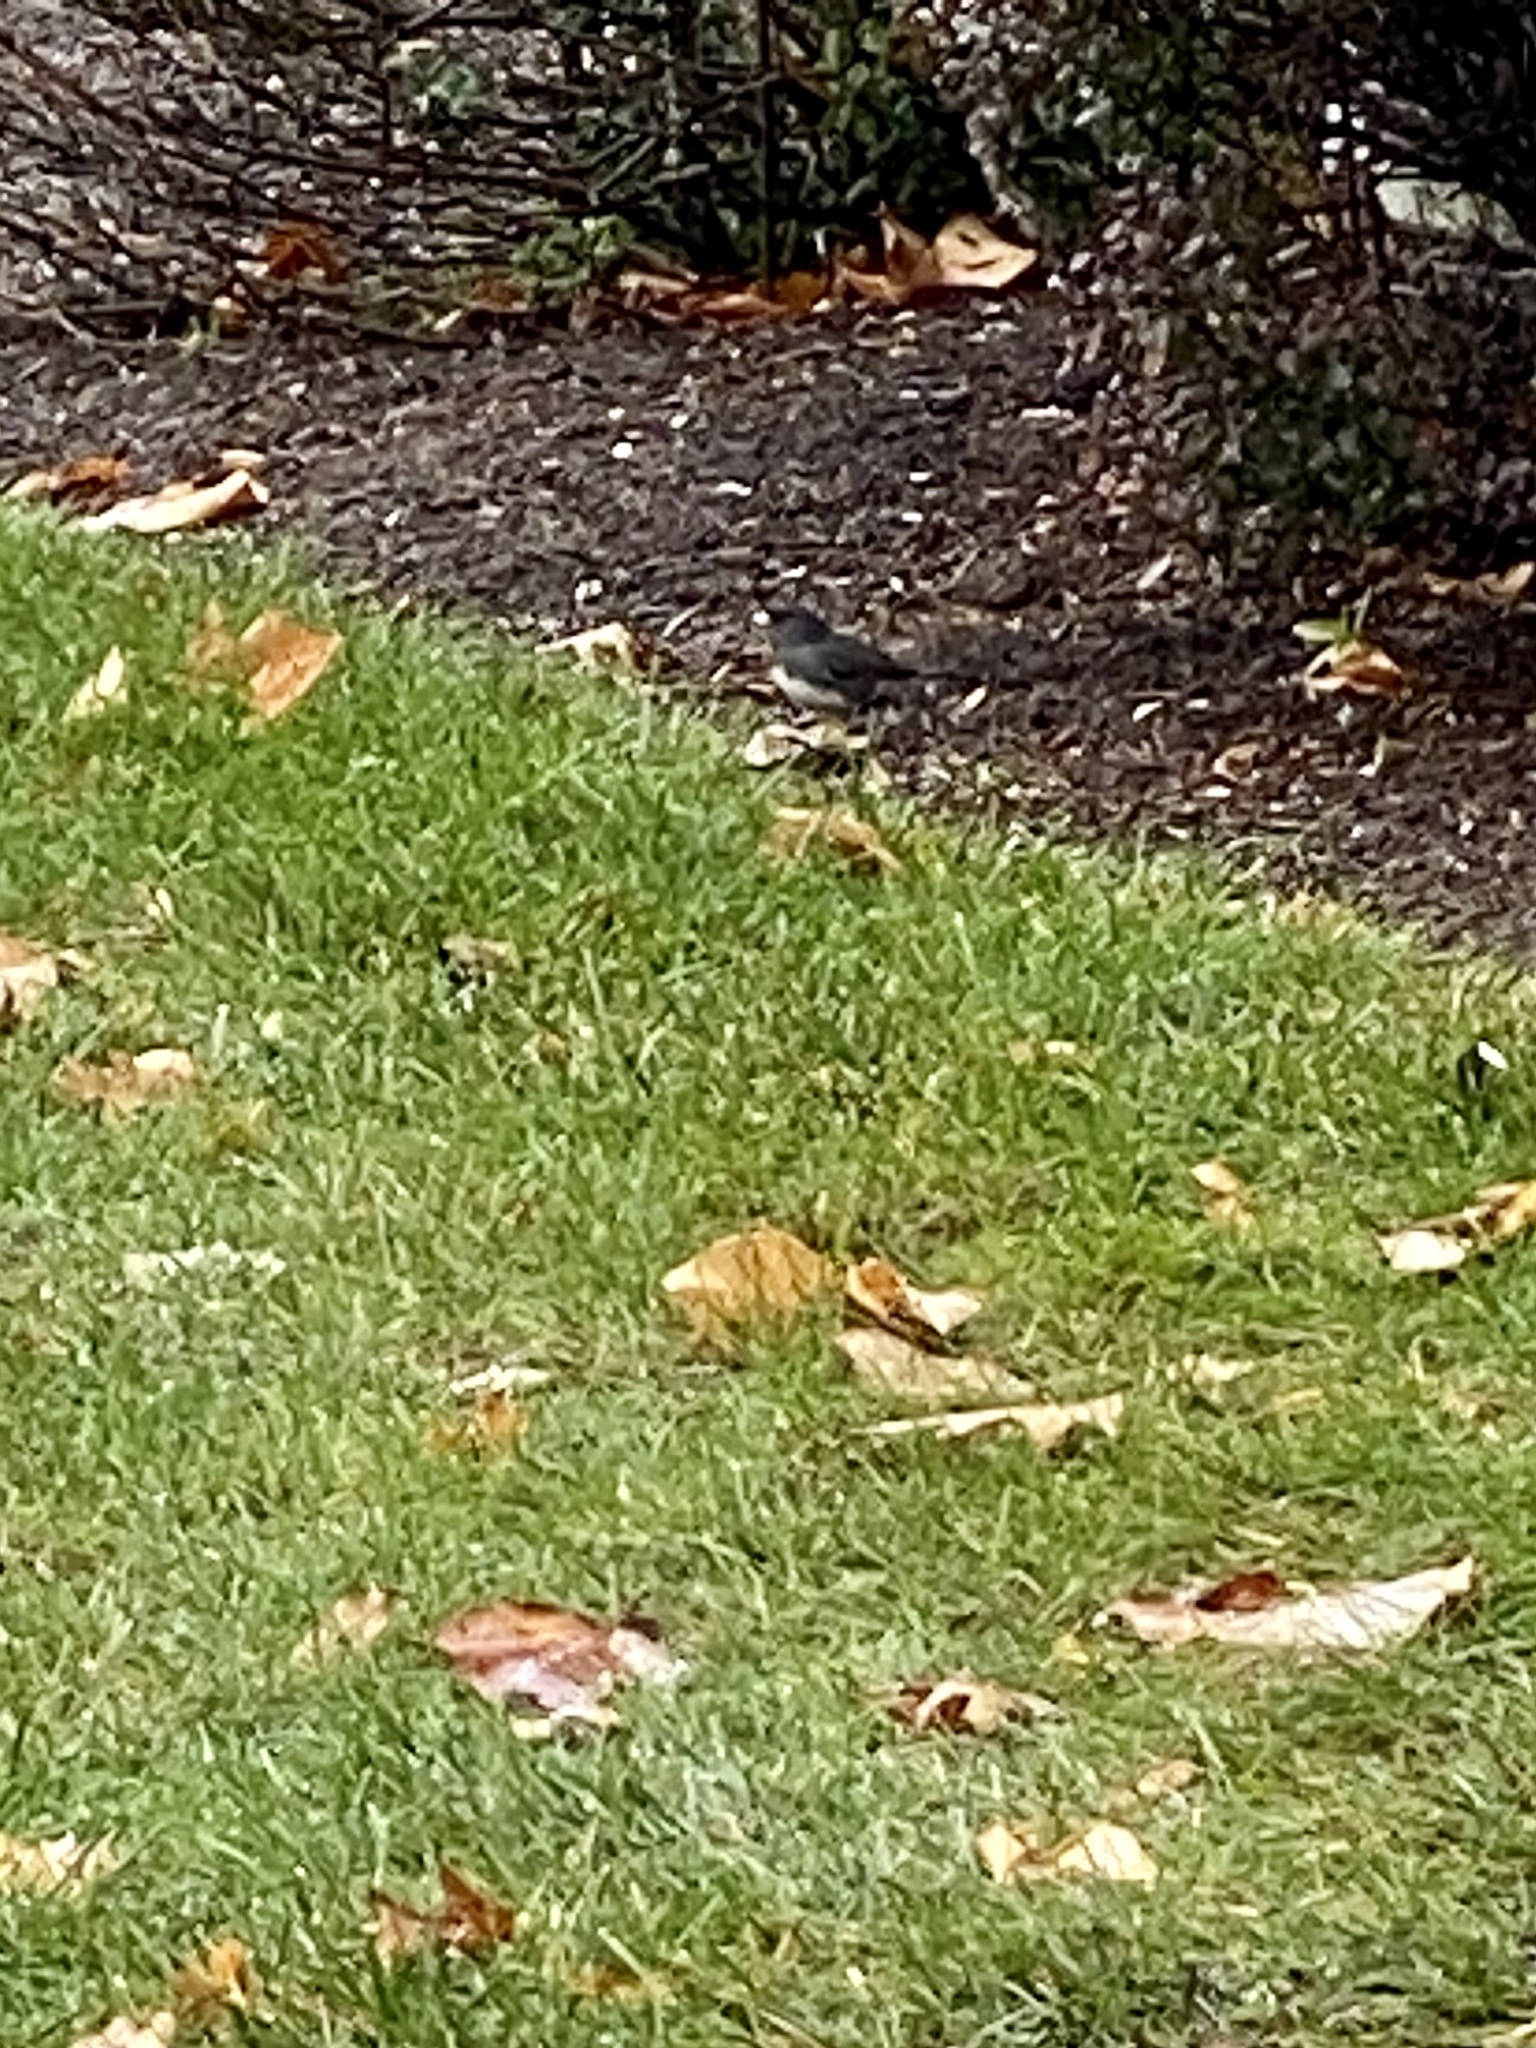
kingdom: Animalia
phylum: Chordata
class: Aves
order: Passeriformes
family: Passerellidae
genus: Junco
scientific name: Junco hyemalis
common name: Dark-eyed junco
